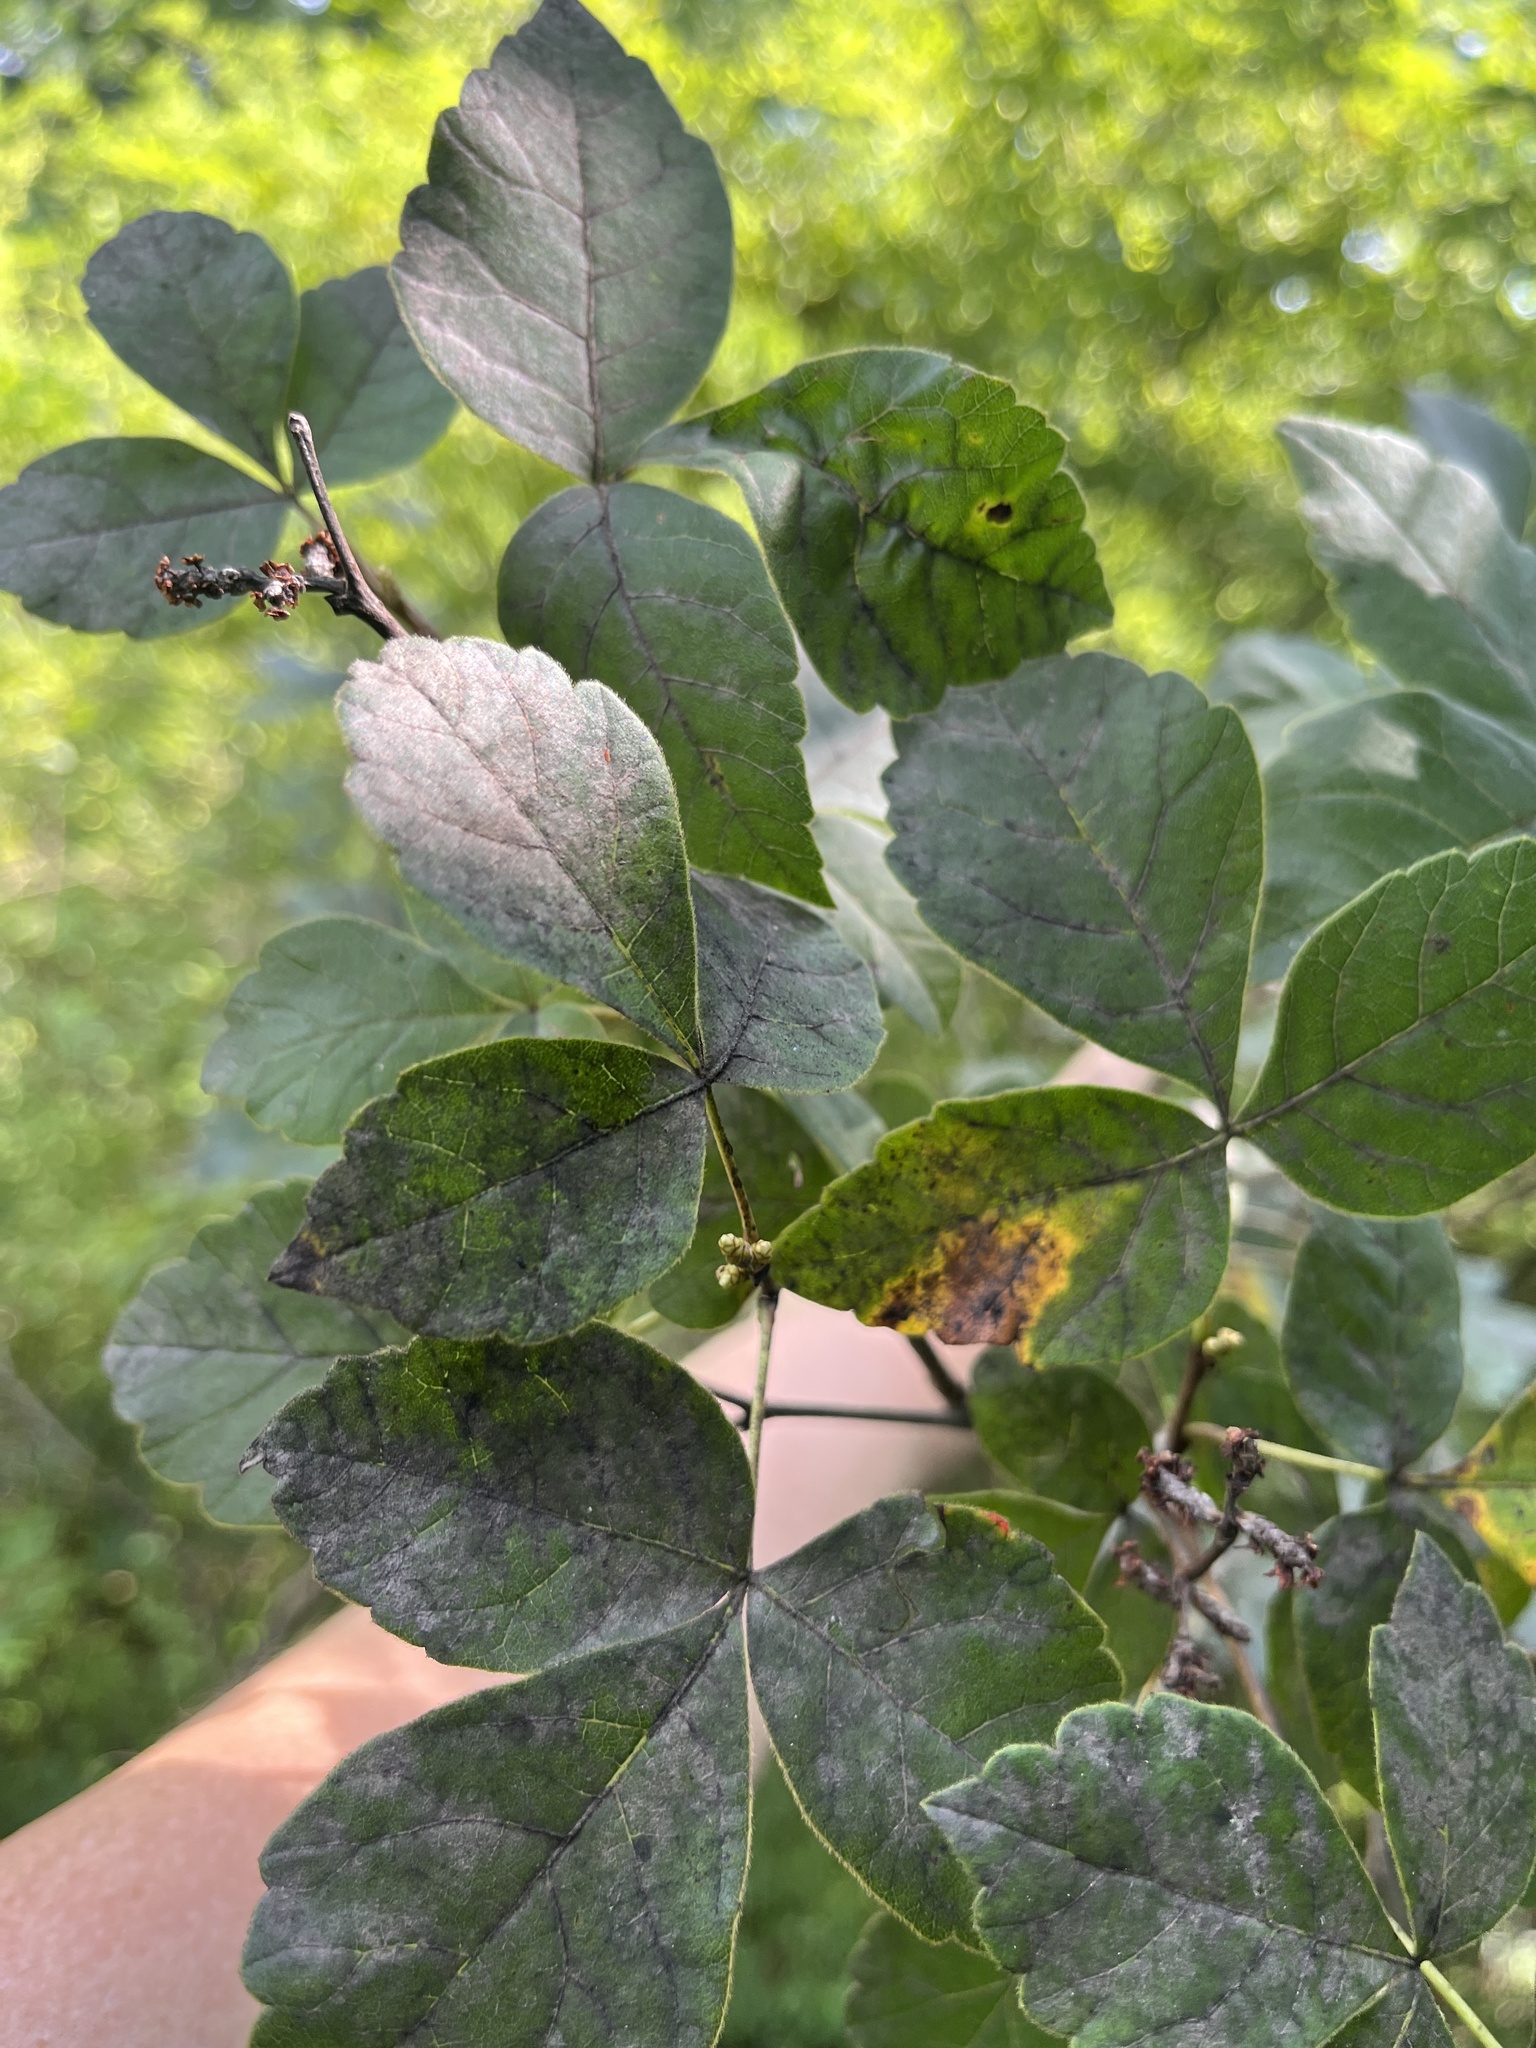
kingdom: Plantae
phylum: Tracheophyta
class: Magnoliopsida
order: Sapindales
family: Anacardiaceae
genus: Rhus
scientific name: Rhus aromatica
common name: Aromatic sumac
